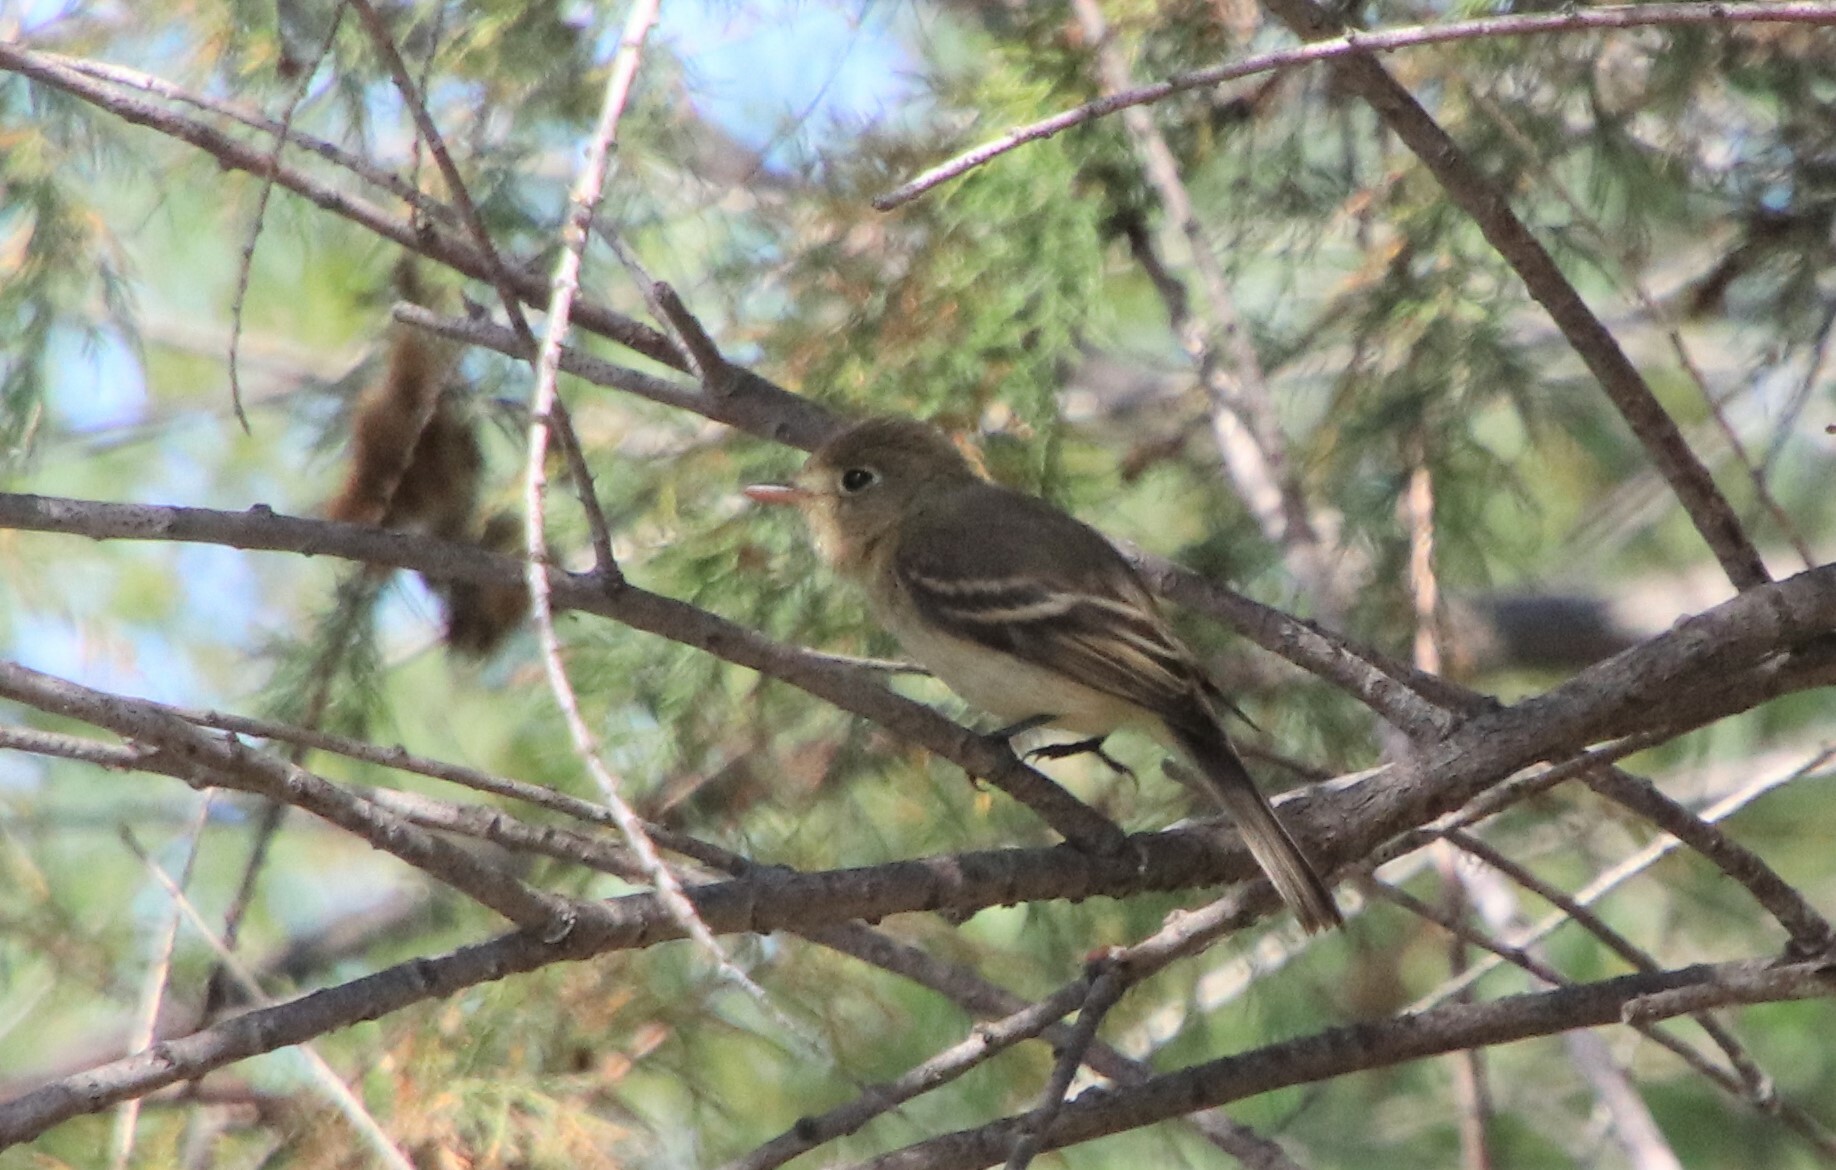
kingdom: Animalia
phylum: Chordata
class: Aves
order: Passeriformes
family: Tyrannidae
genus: Empidonax
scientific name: Empidonax difficilis
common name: Pacific-slope flycatcher
